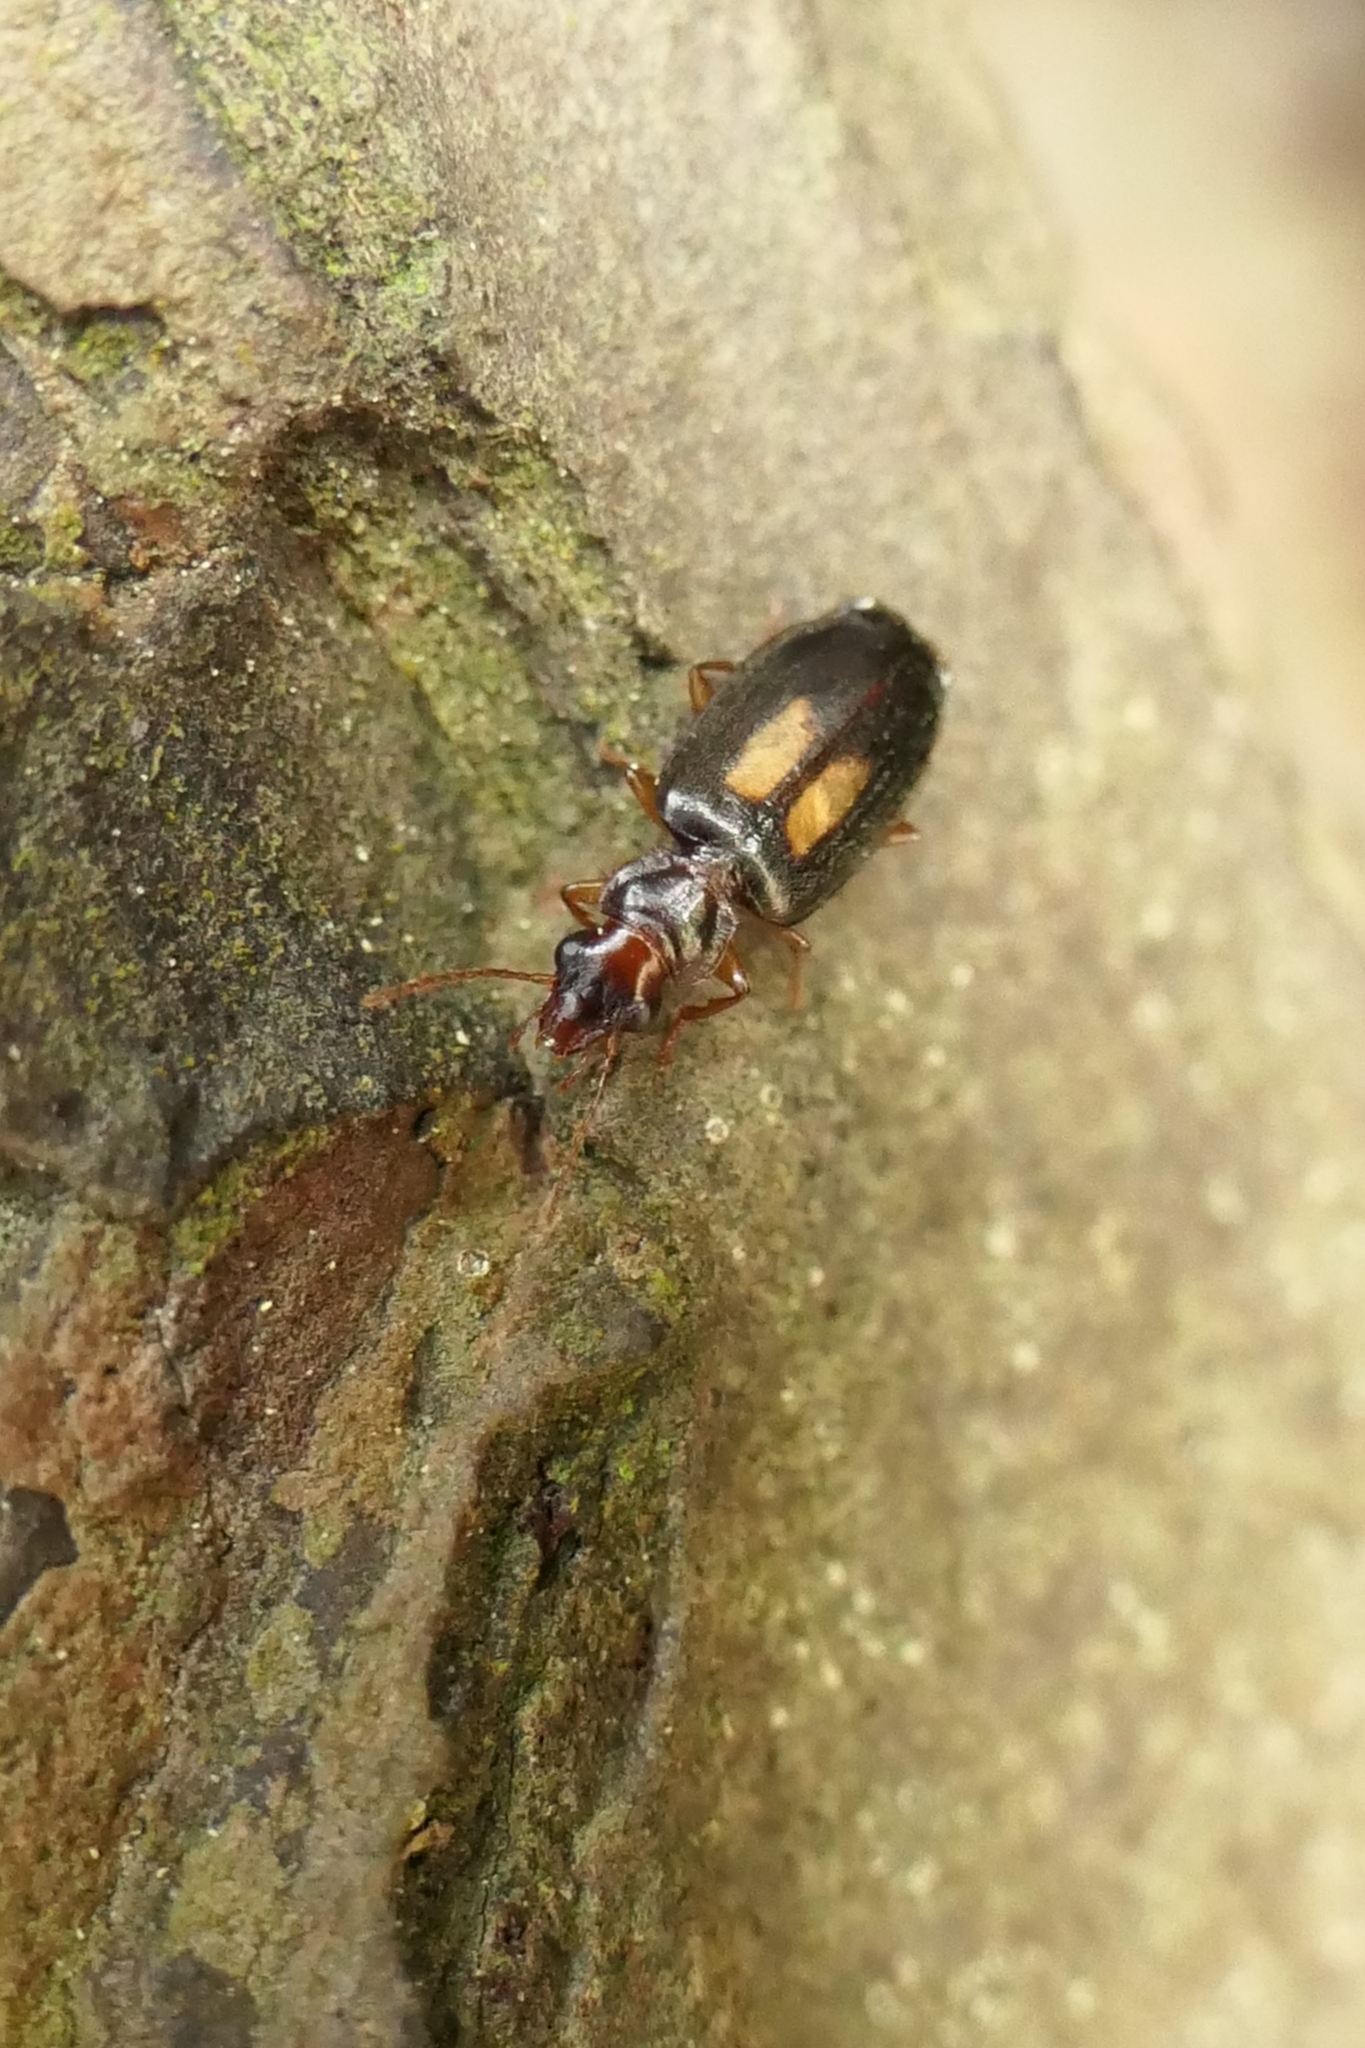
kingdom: Animalia
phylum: Arthropoda
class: Insecta
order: Coleoptera
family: Carabidae
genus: Agonocheila
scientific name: Agonocheila antipodum
